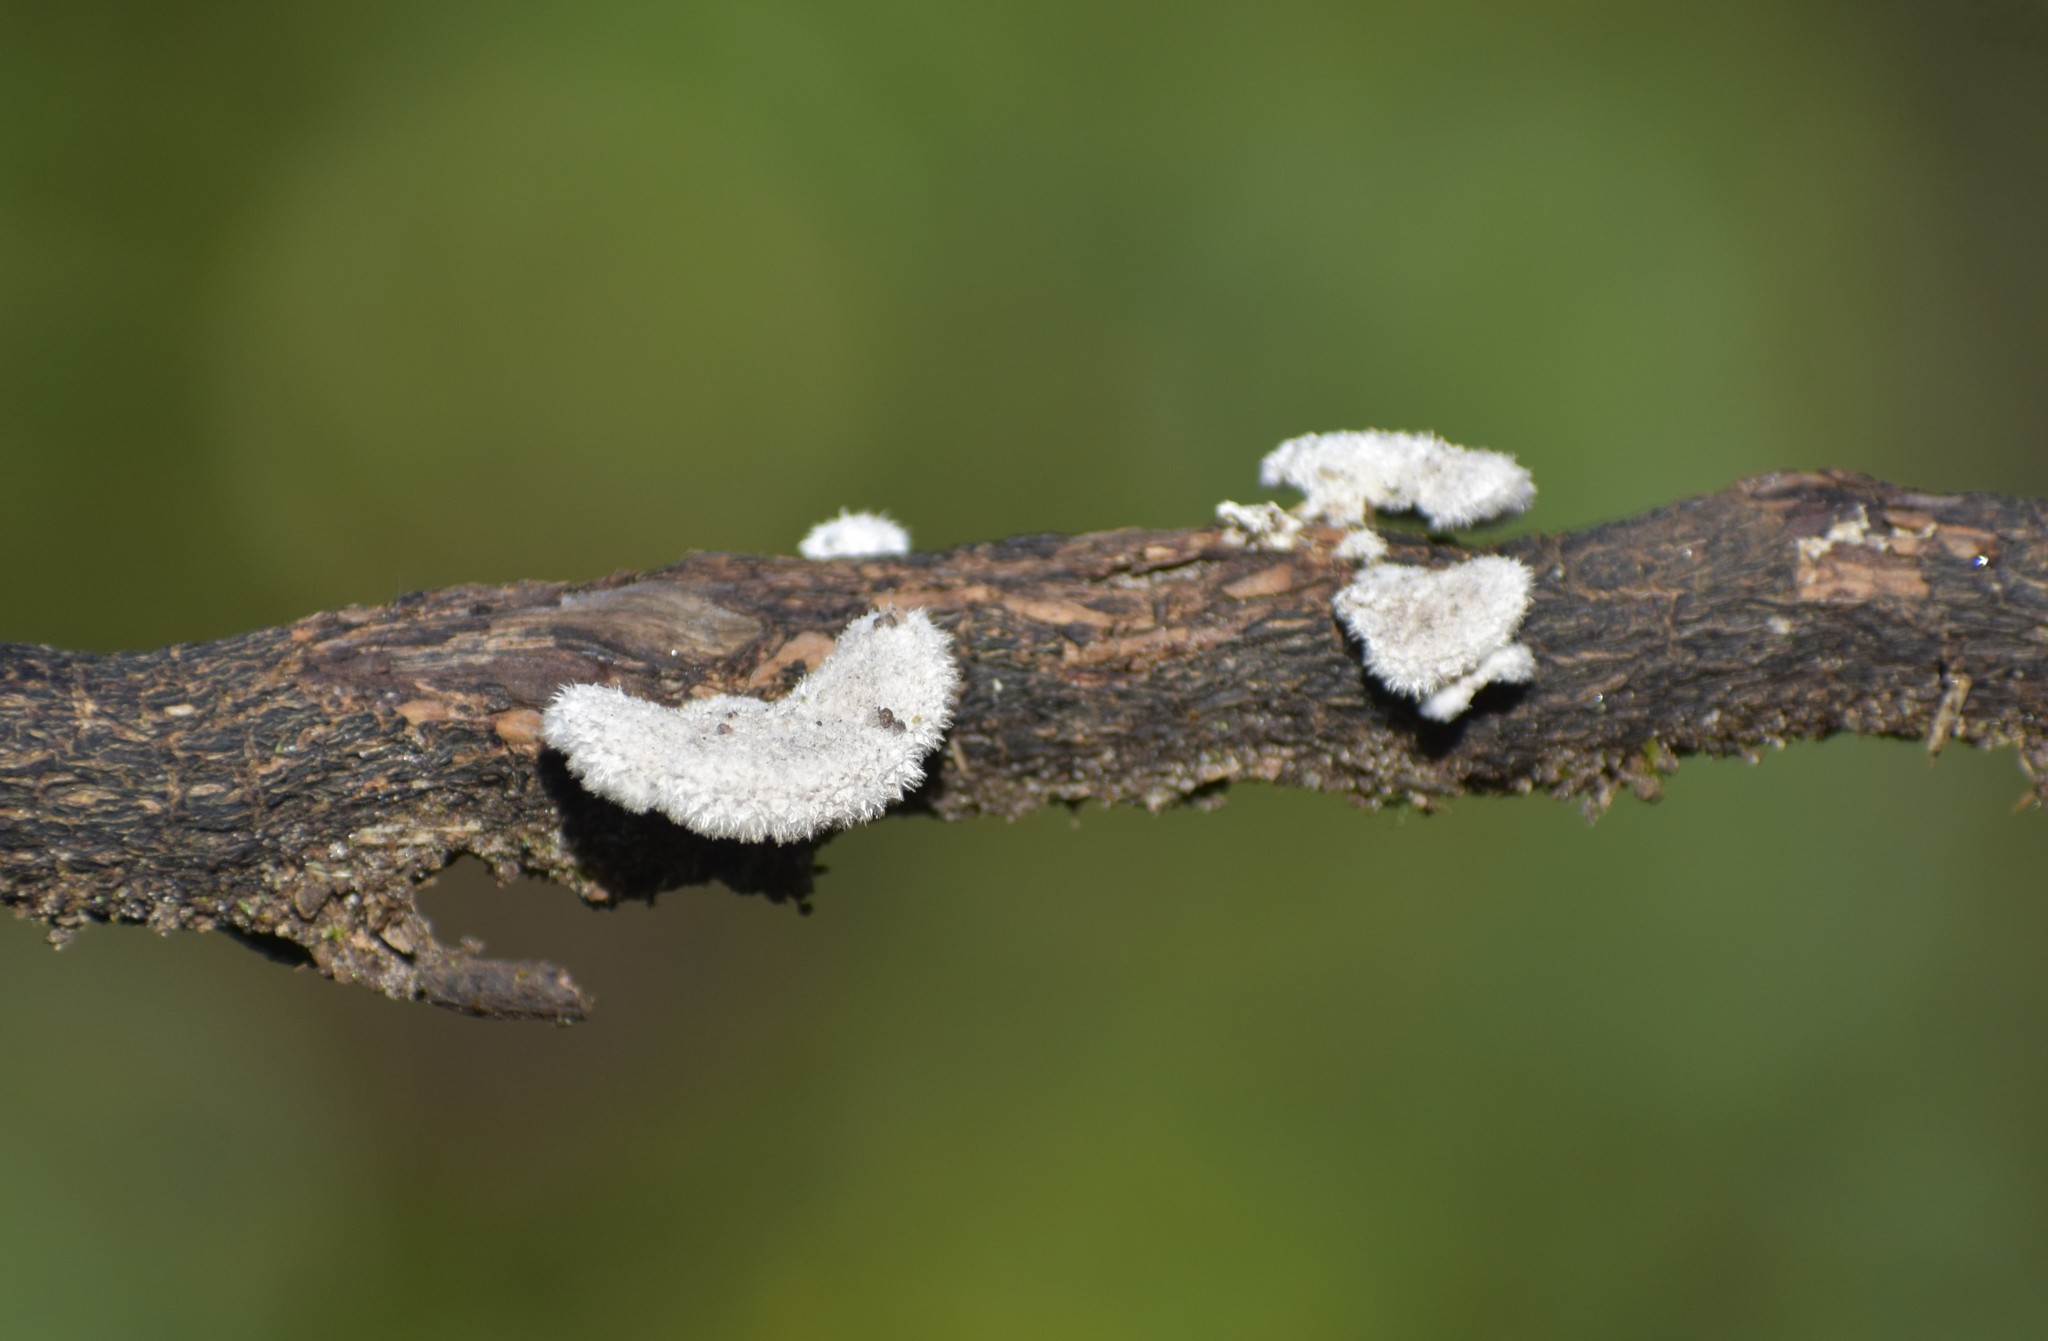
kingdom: Fungi
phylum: Basidiomycota
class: Agaricomycetes
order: Agaricales
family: Schizophyllaceae
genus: Schizophyllum
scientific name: Schizophyllum commune
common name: Common porecrust
